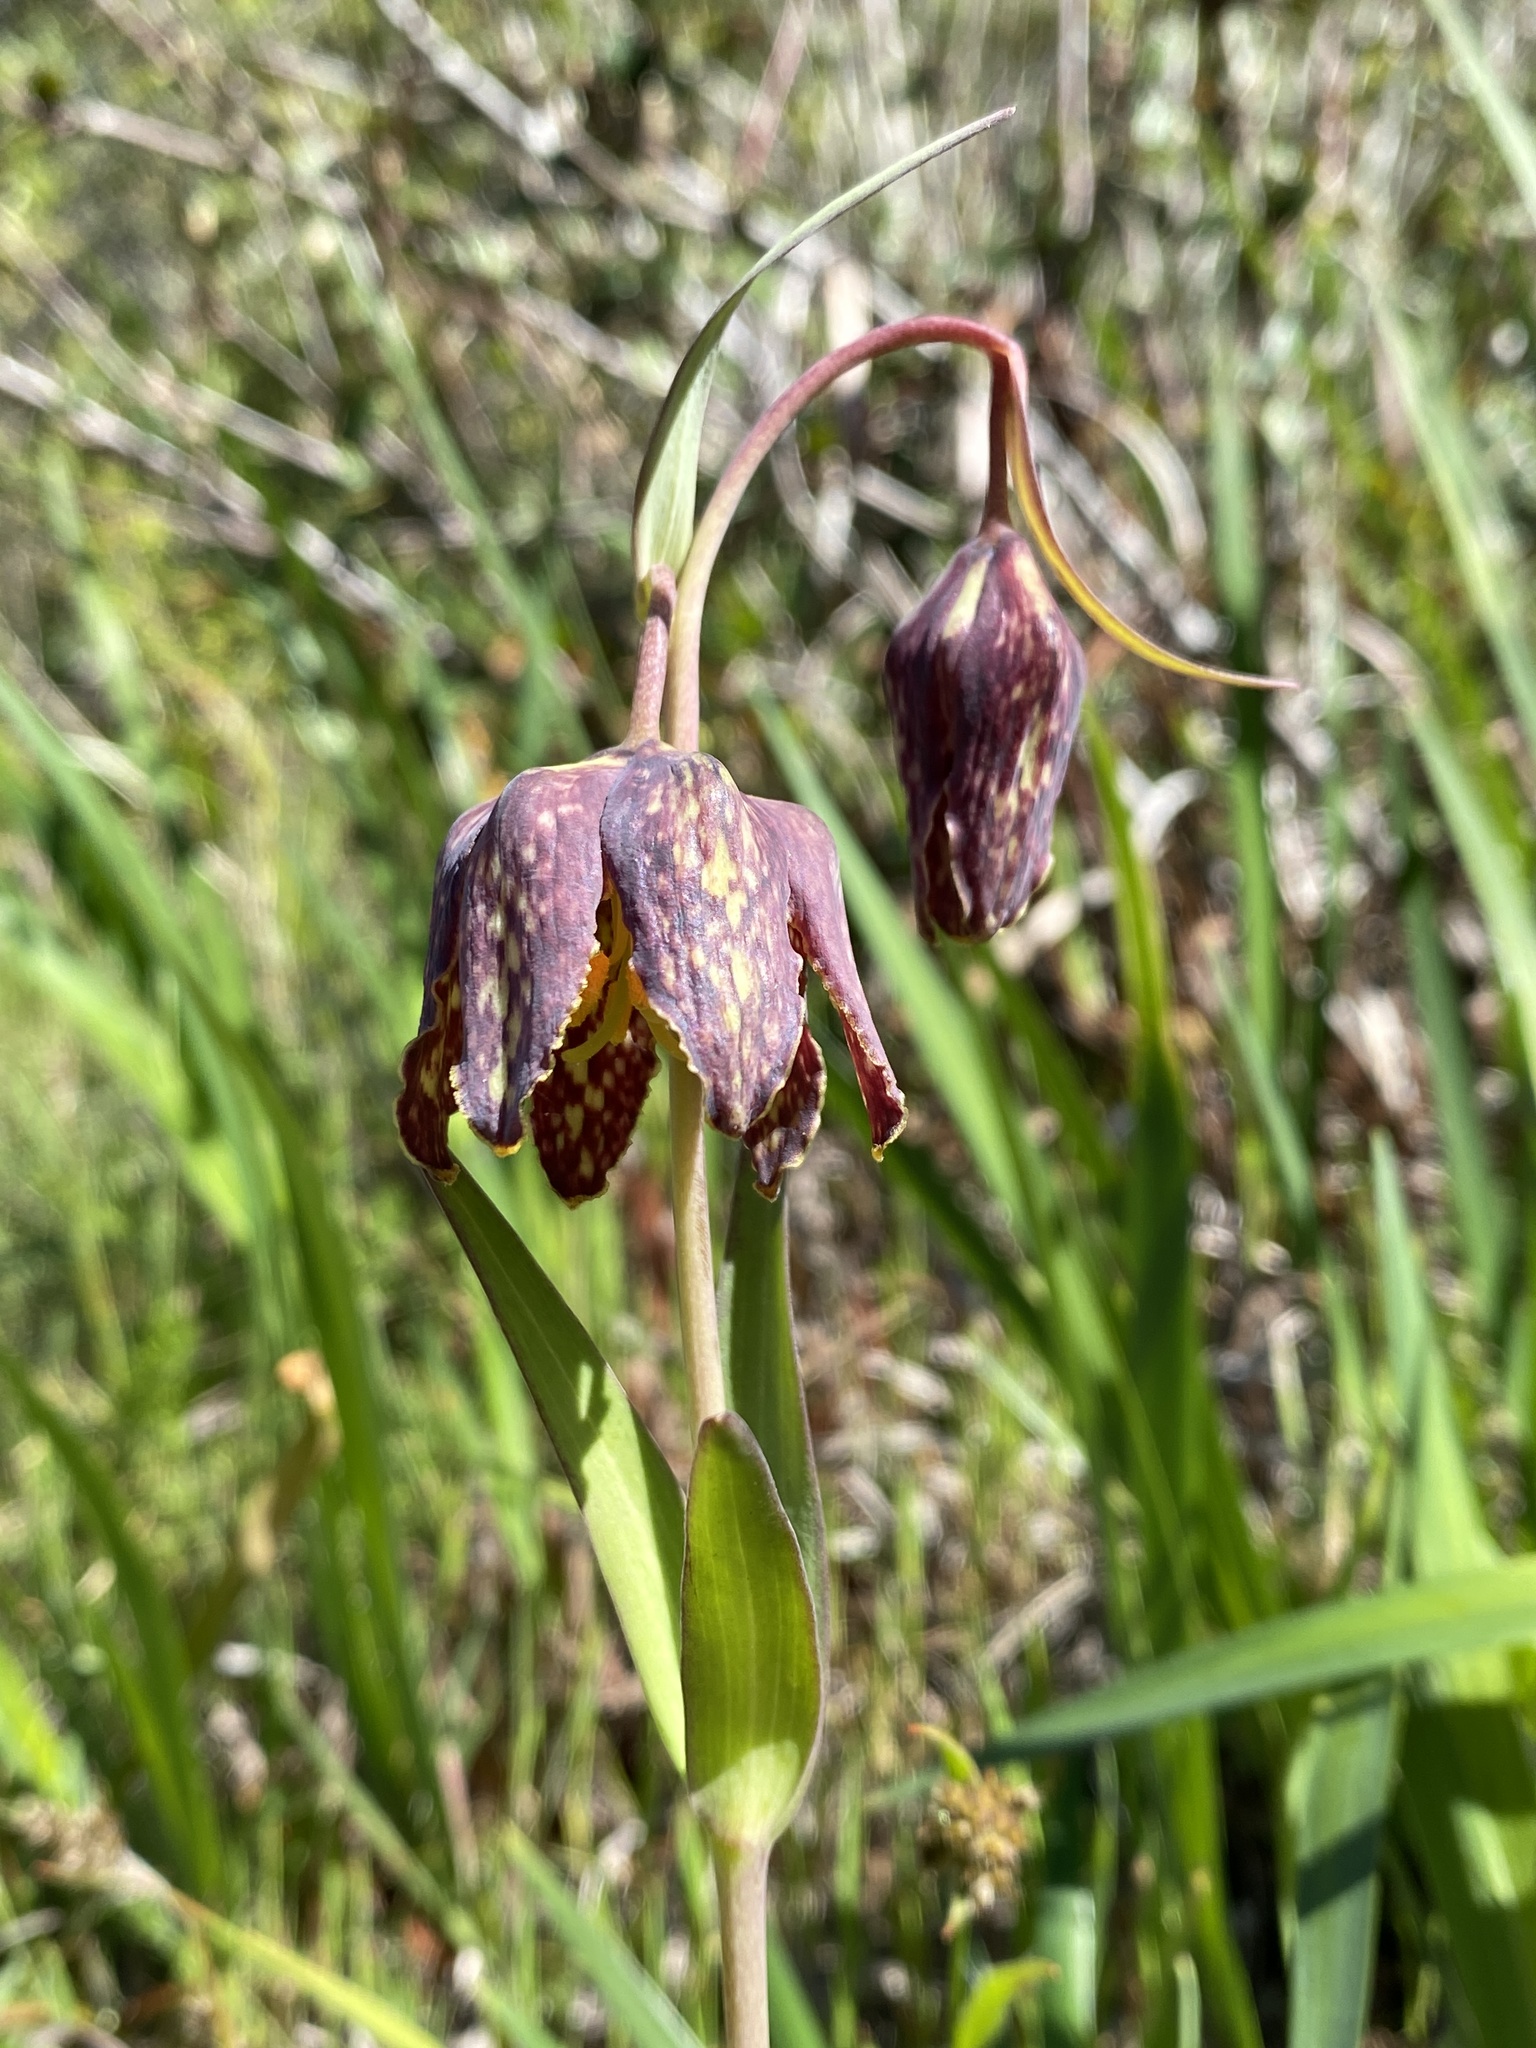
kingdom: Plantae
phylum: Tracheophyta
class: Liliopsida
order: Liliales
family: Liliaceae
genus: Fritillaria
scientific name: Fritillaria affinis
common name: Ojai fritillary
